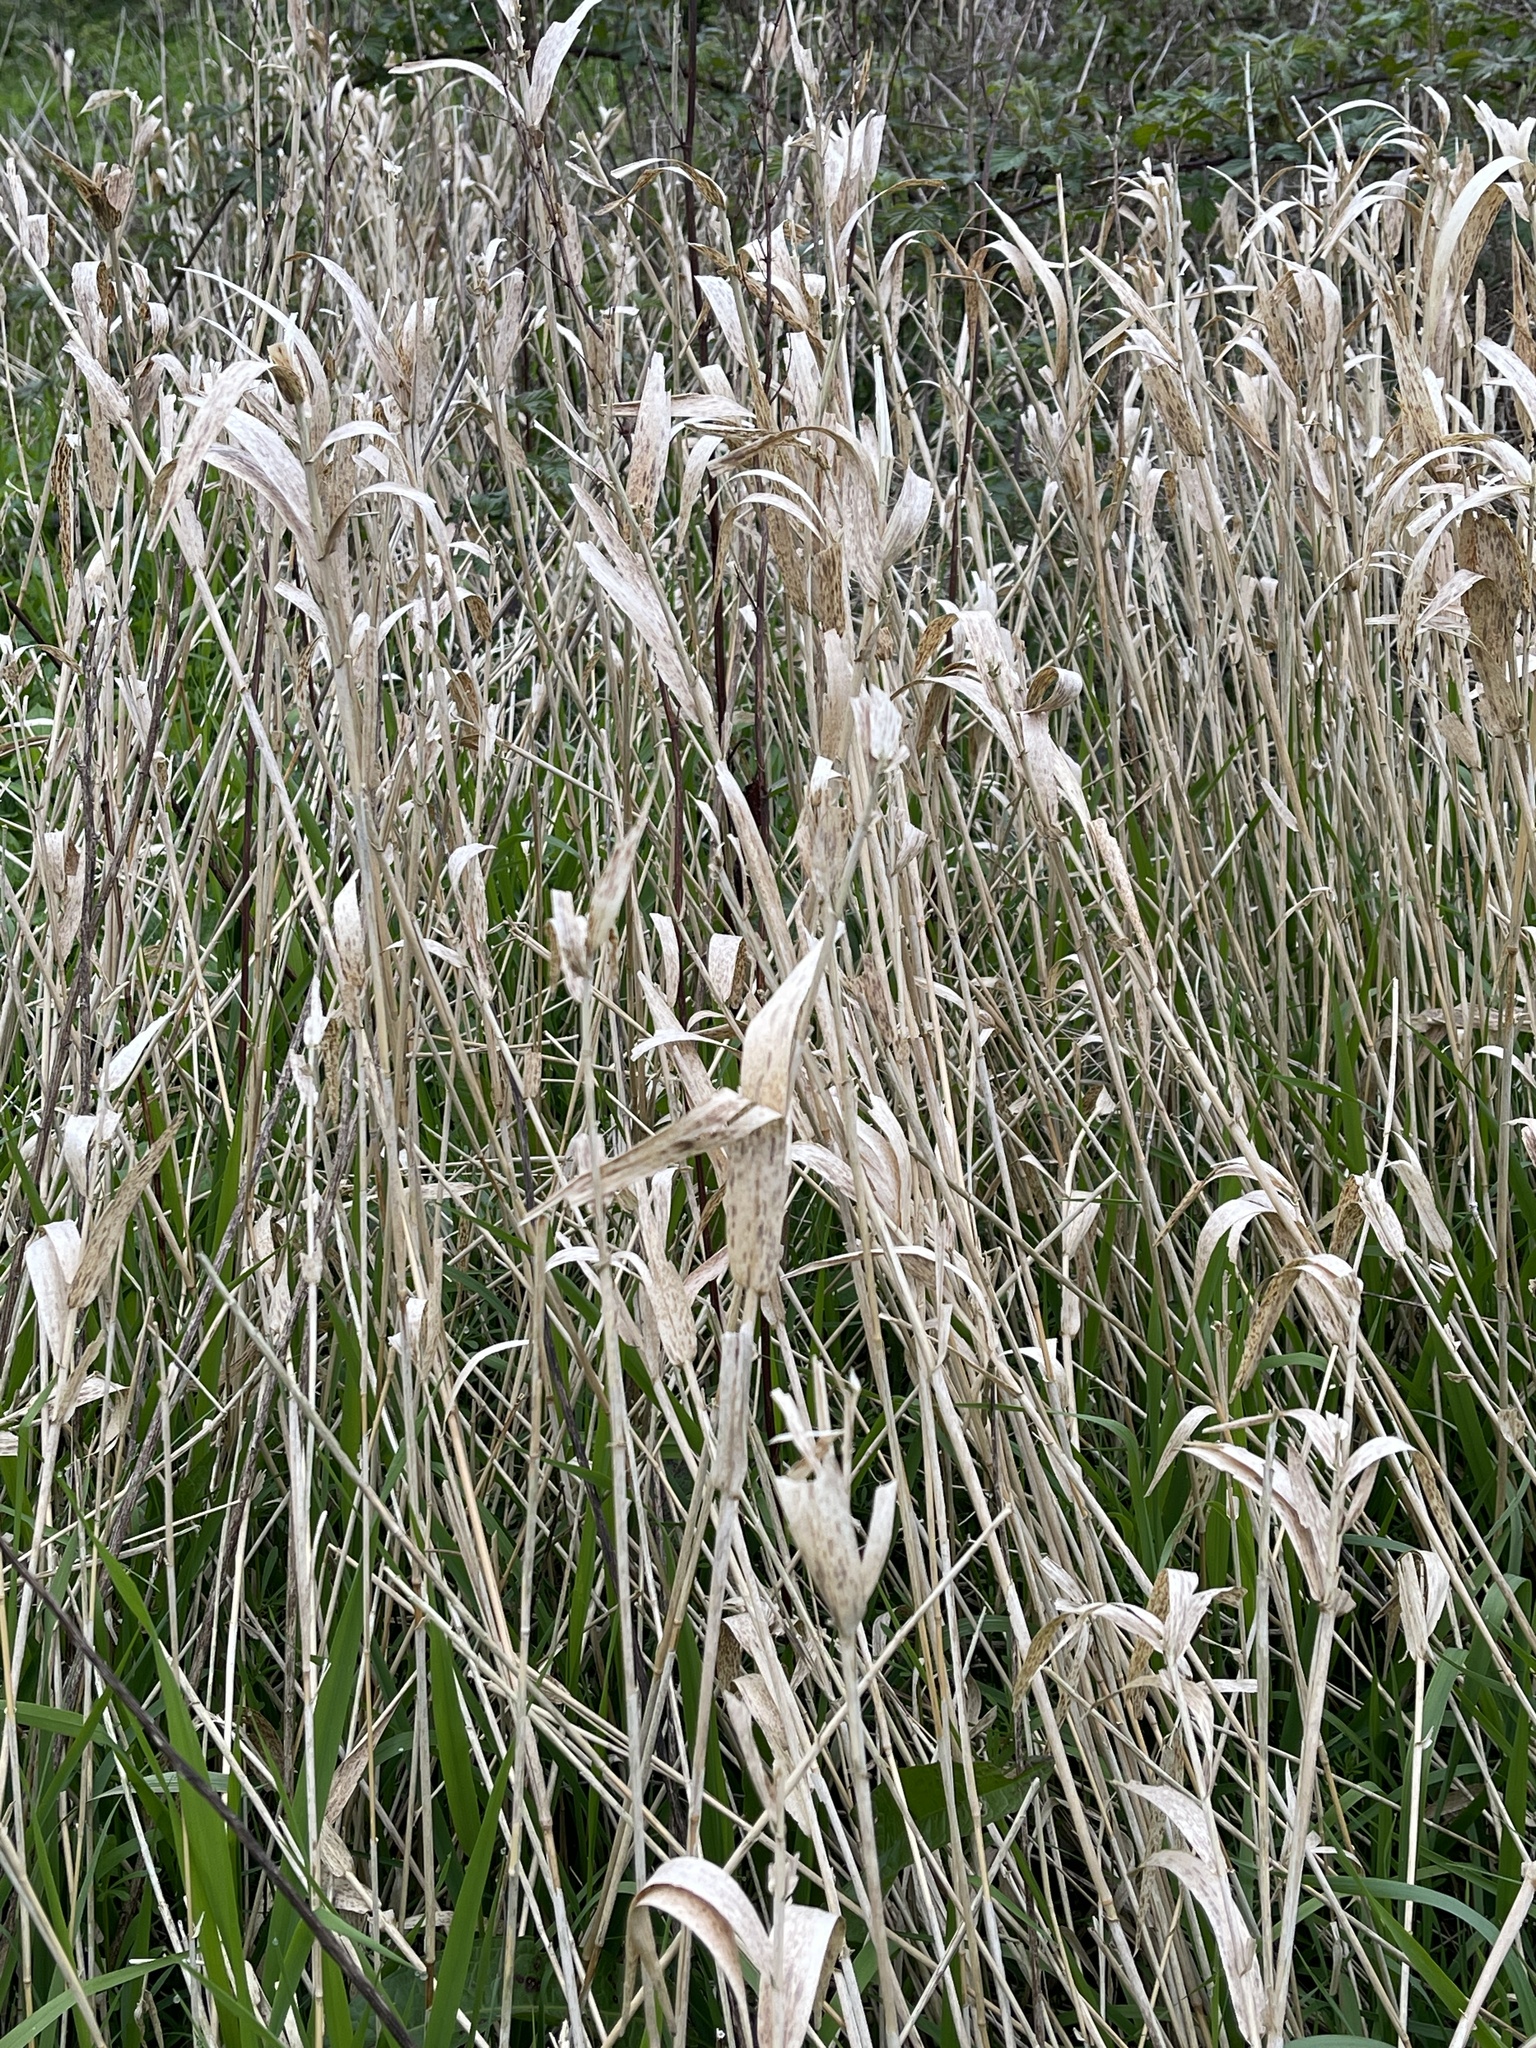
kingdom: Plantae
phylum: Tracheophyta
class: Liliopsida
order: Poales
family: Poaceae
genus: Phalaris
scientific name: Phalaris arundinacea
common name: Reed canary-grass
